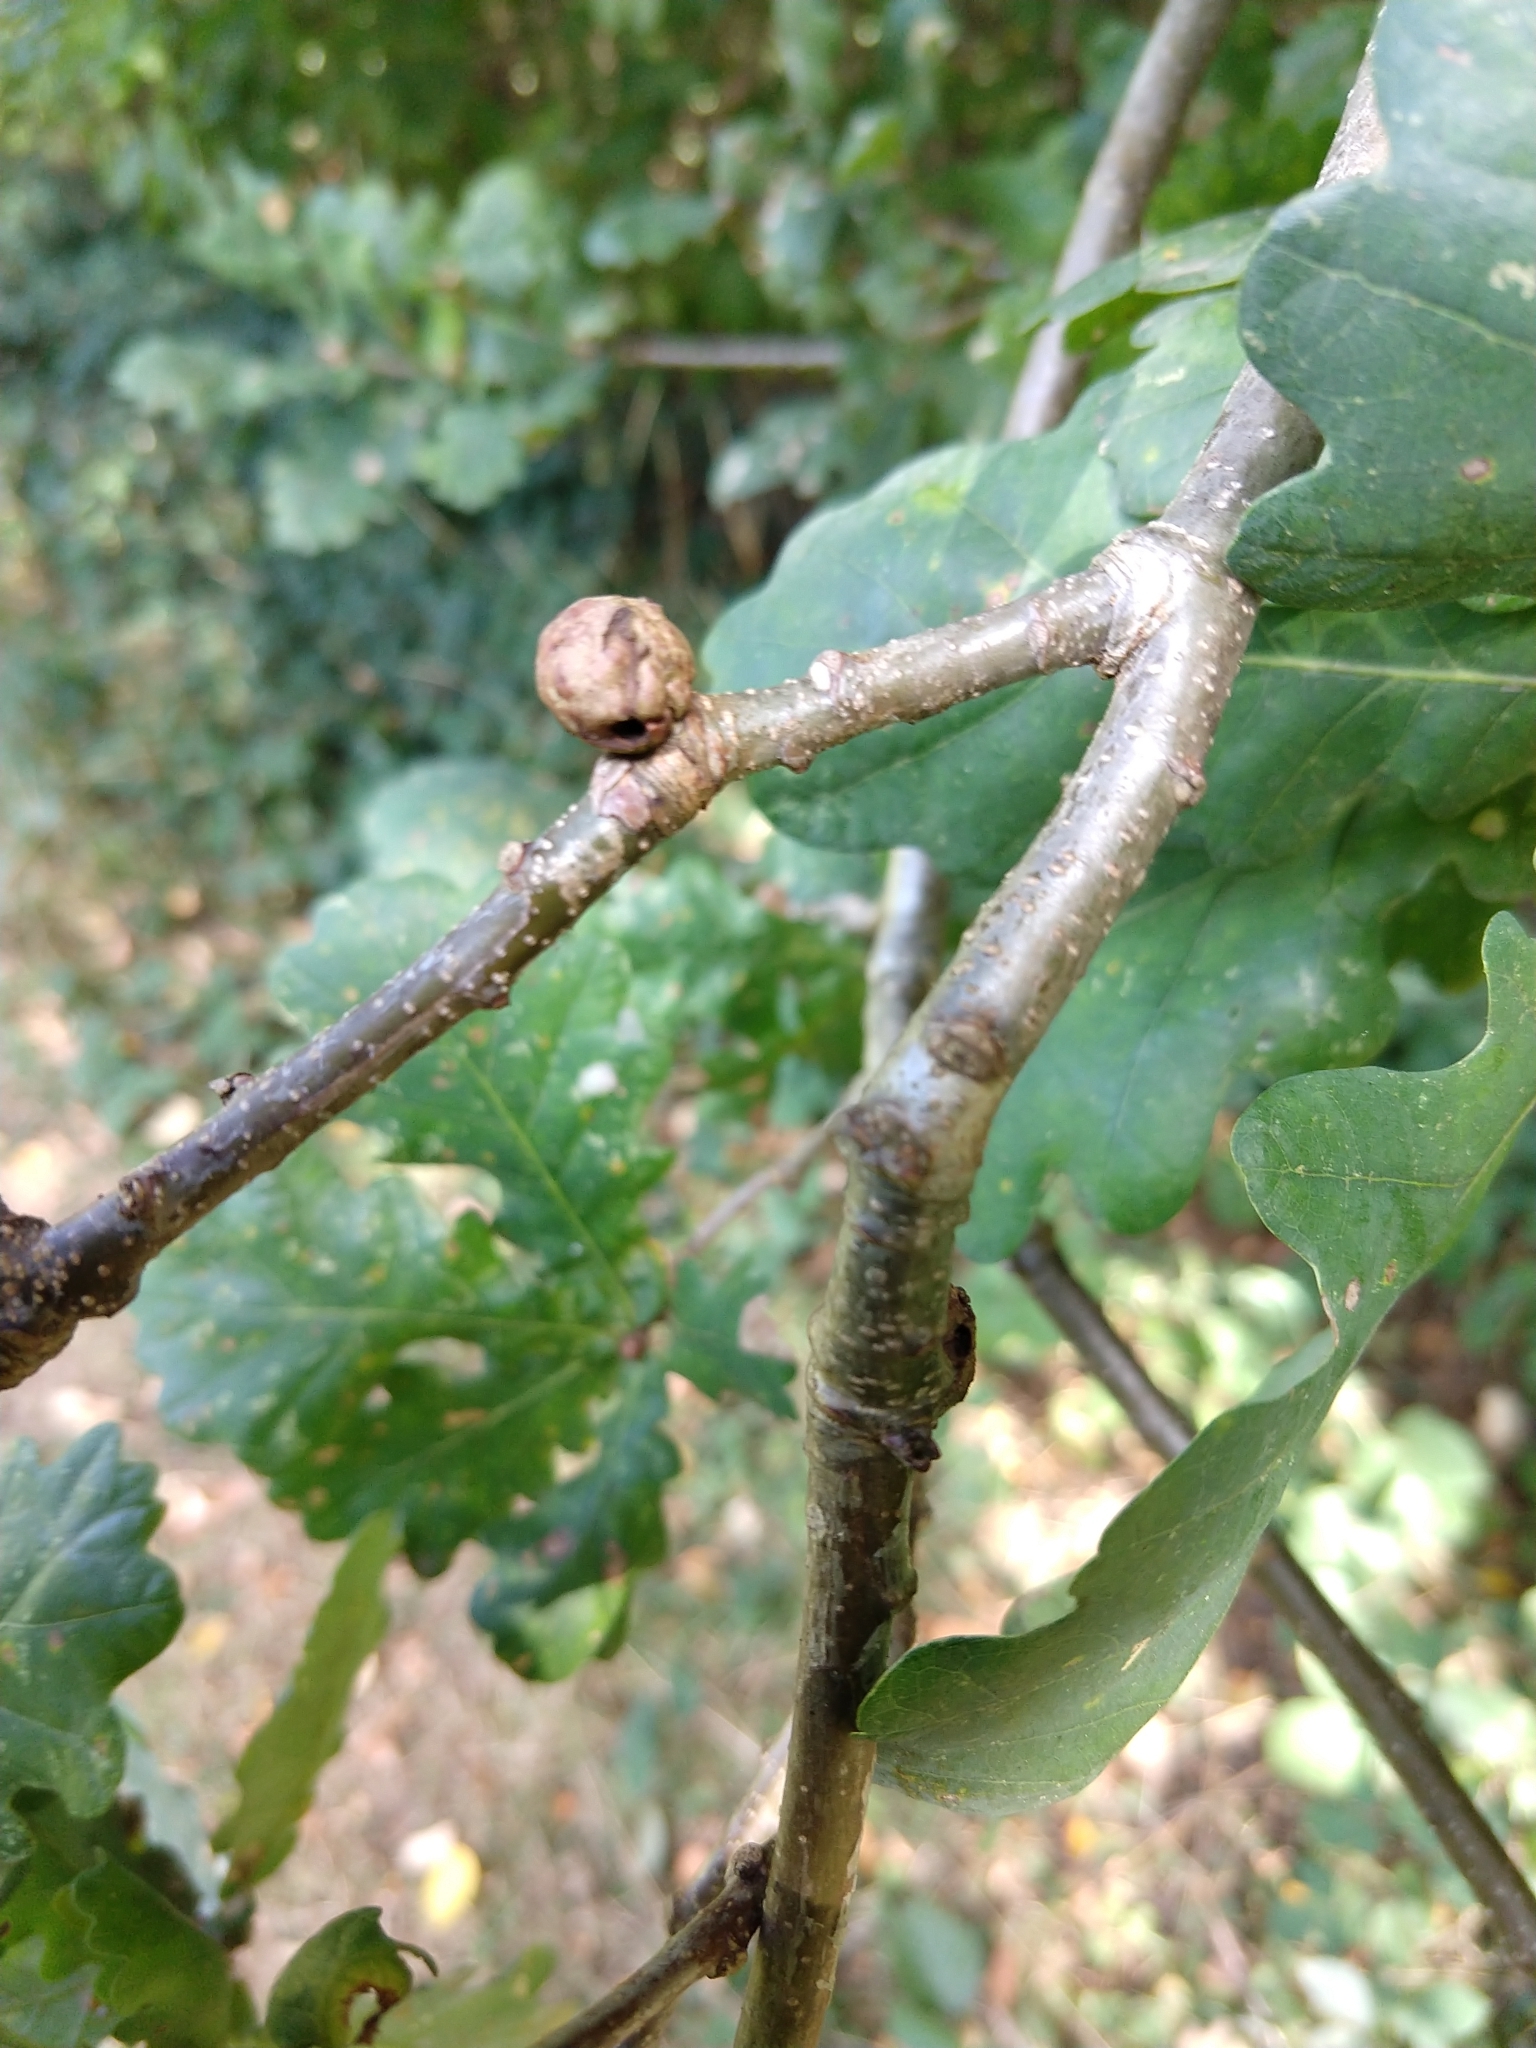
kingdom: Animalia
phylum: Arthropoda
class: Insecta
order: Hymenoptera
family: Cynipidae
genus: Andricus
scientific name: Andricus lignicolus
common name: Cola-nut gall
